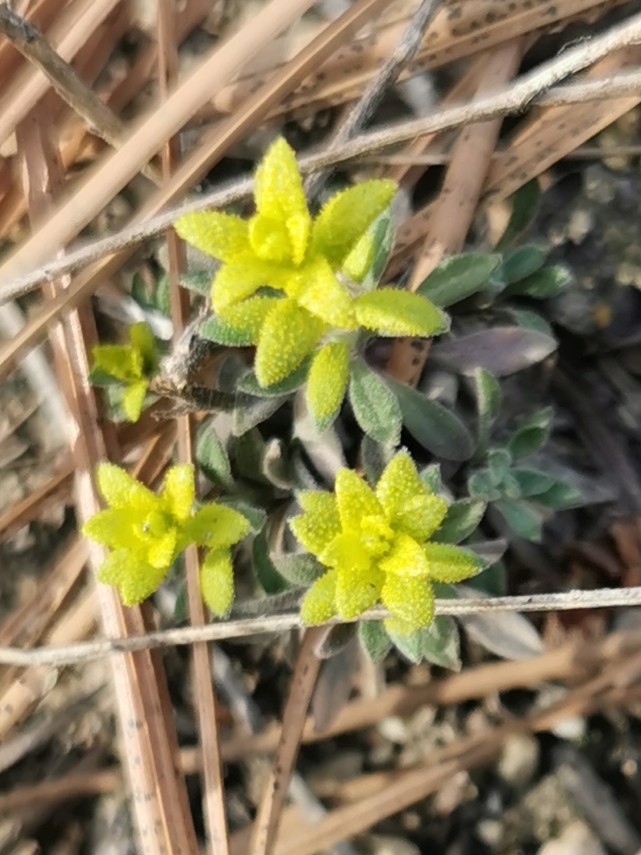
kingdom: Fungi
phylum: Basidiomycota
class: Pucciniomycetes
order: Pucciniales
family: Pucciniaceae
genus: Puccinia
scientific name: Puccinia monoica
